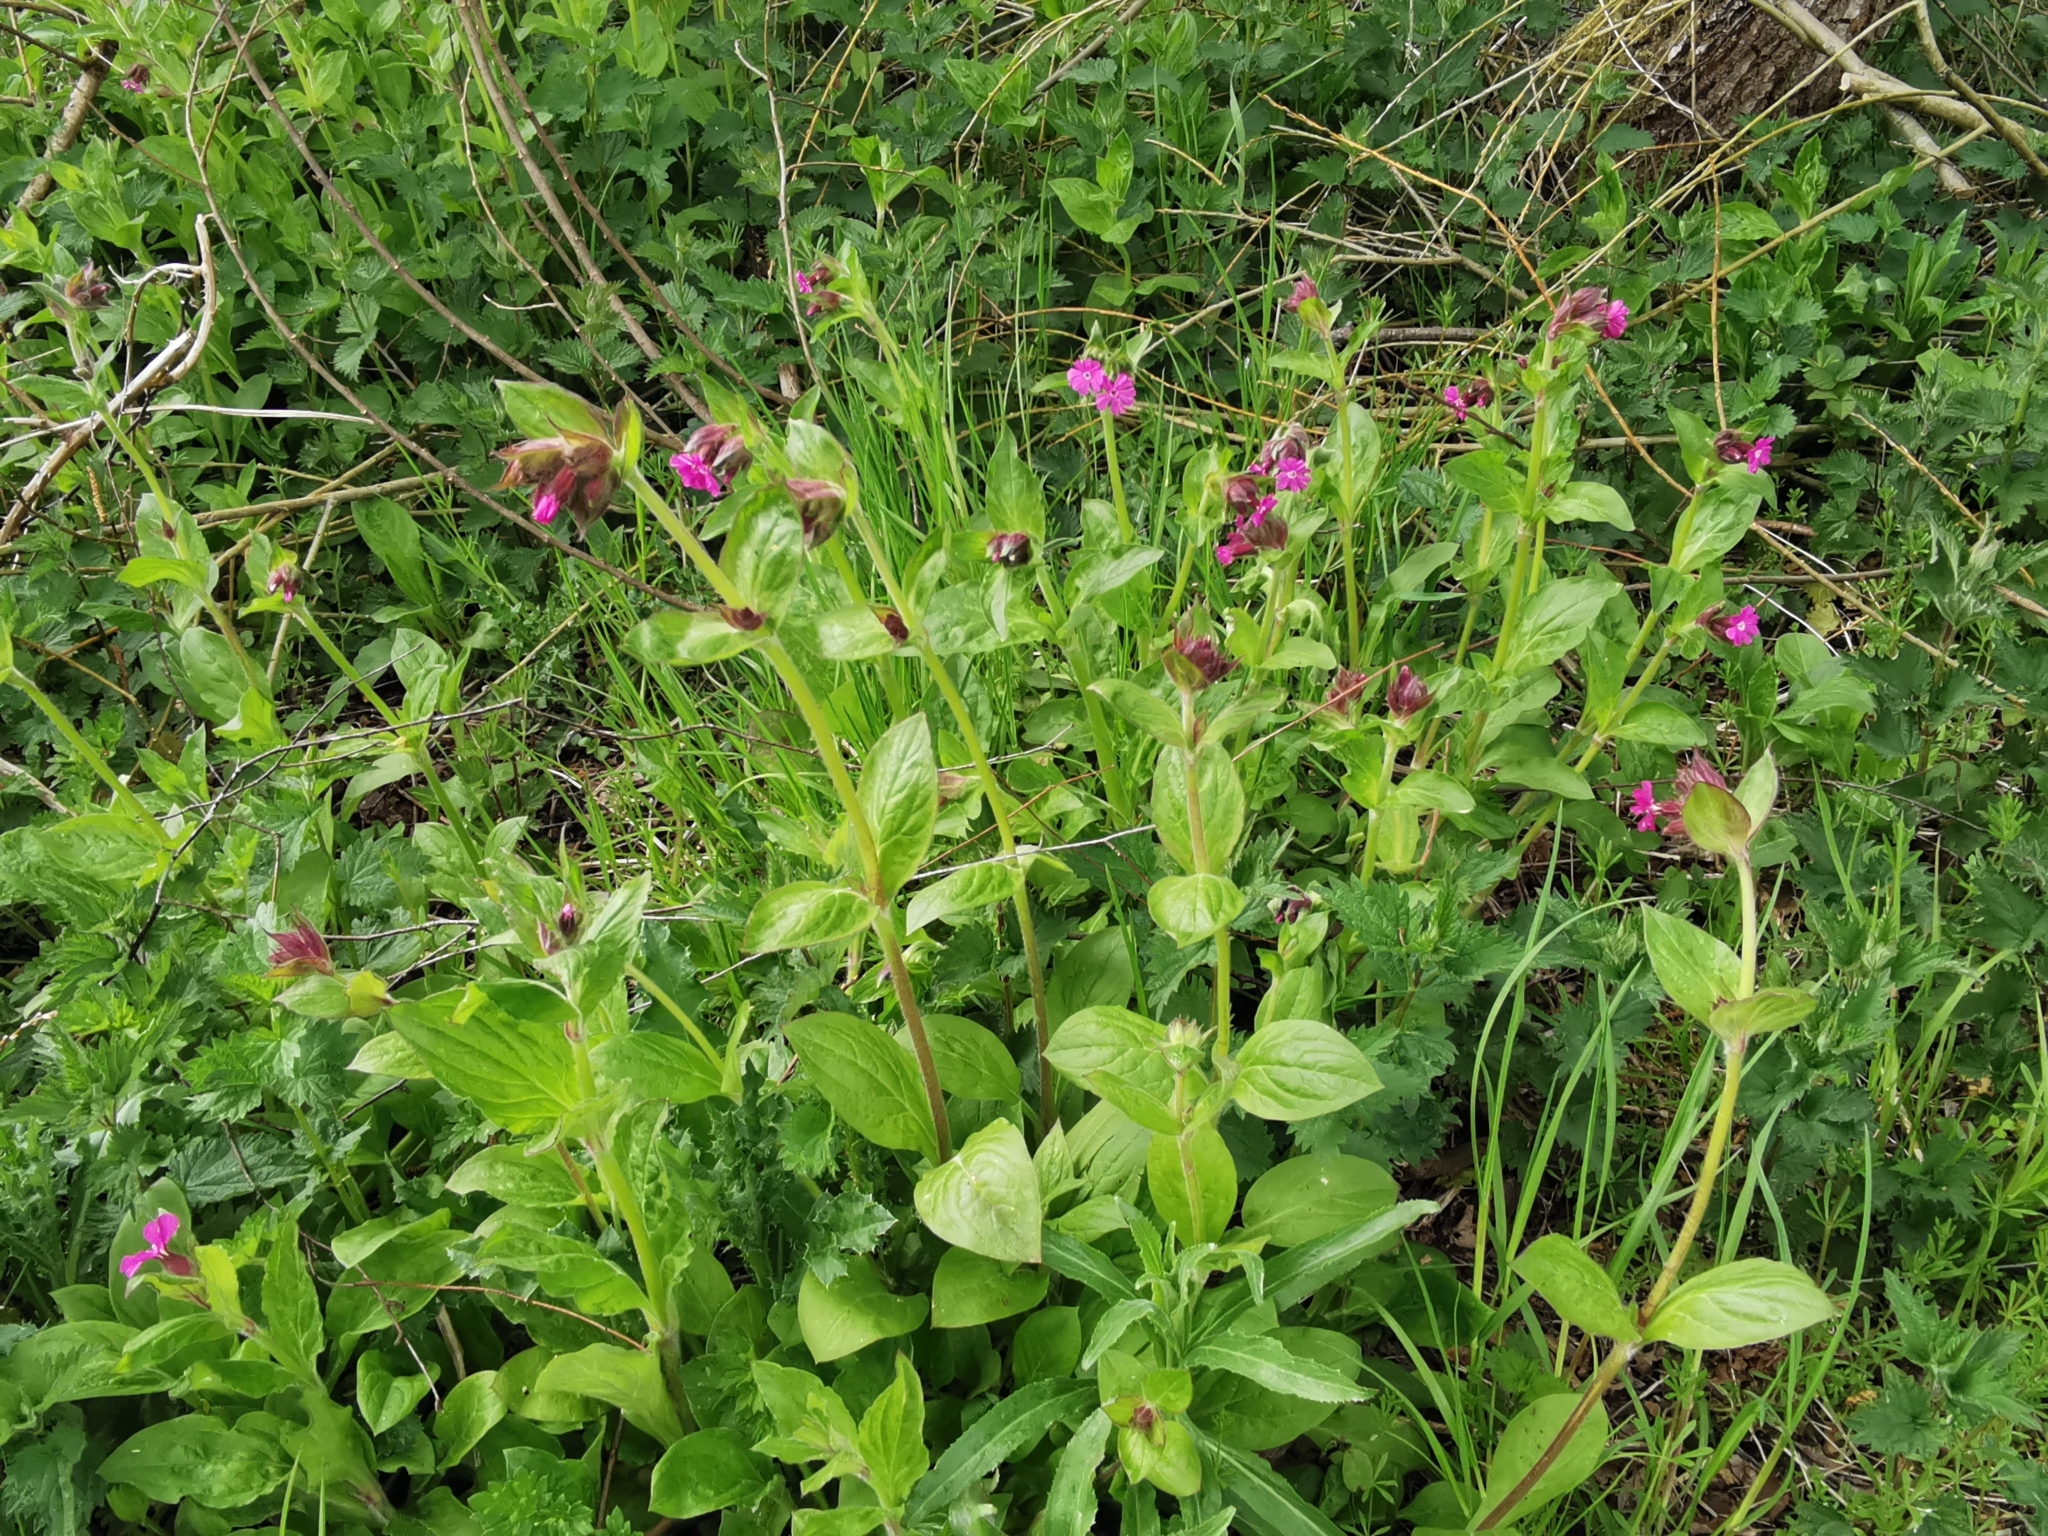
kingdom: Plantae
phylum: Tracheophyta
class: Magnoliopsida
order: Caryophyllales
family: Caryophyllaceae
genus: Silene
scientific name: Silene dioica
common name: Red campion
